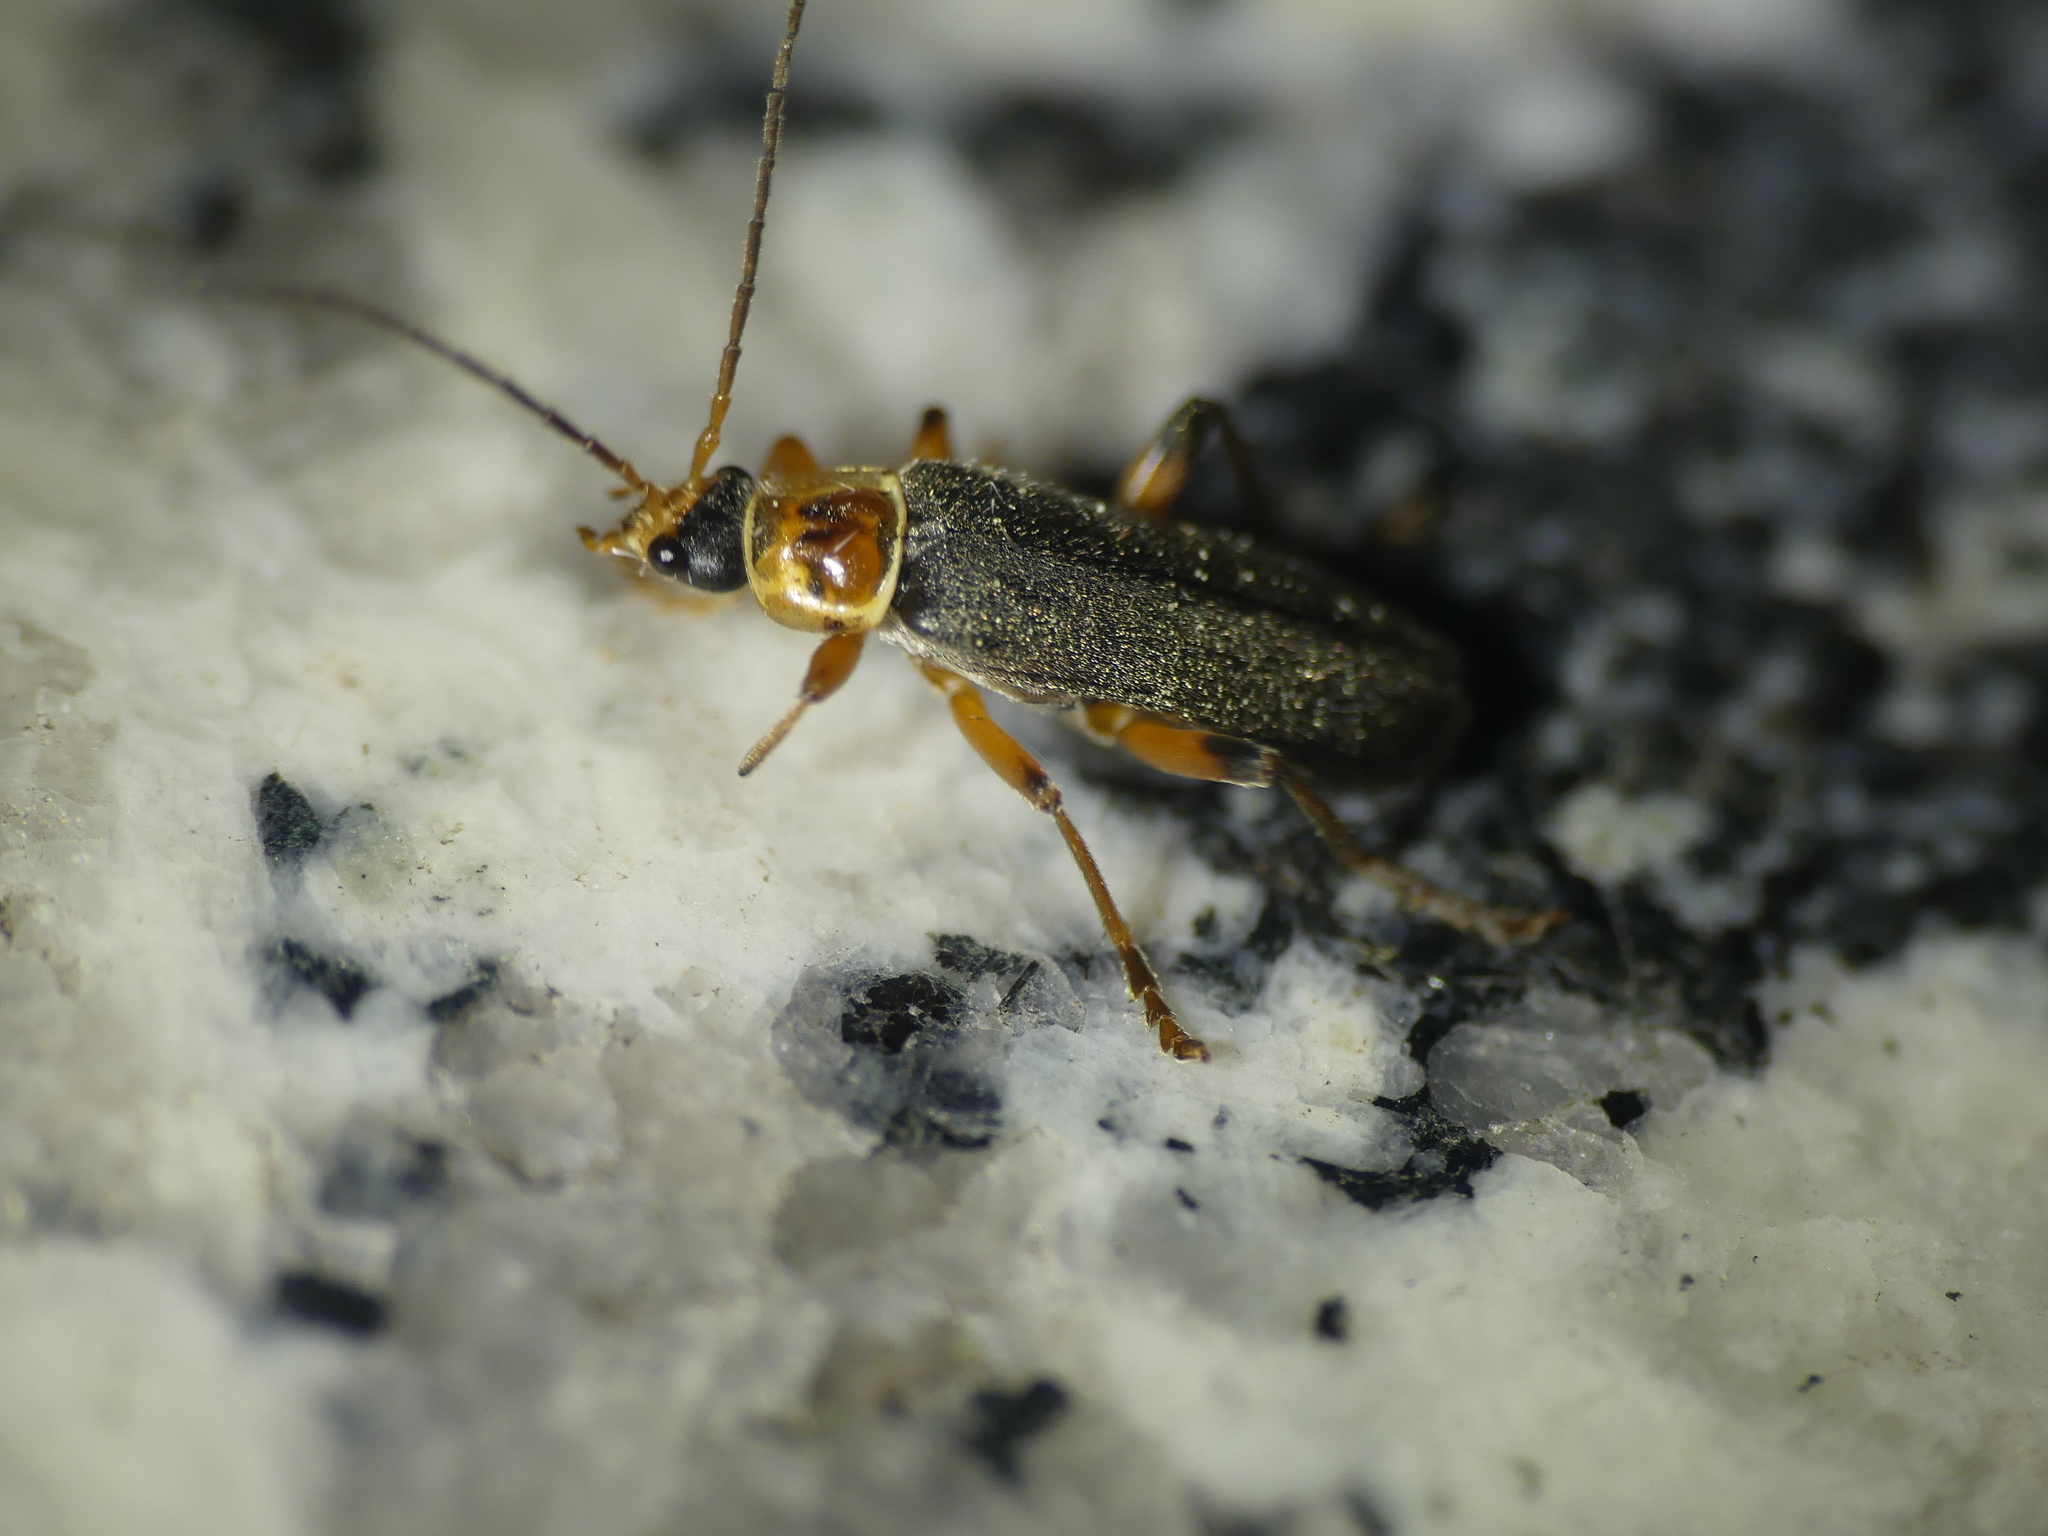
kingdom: Animalia
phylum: Arthropoda
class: Insecta
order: Coleoptera
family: Cantharidae
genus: Cantharis
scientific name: Cantharis nigricans
